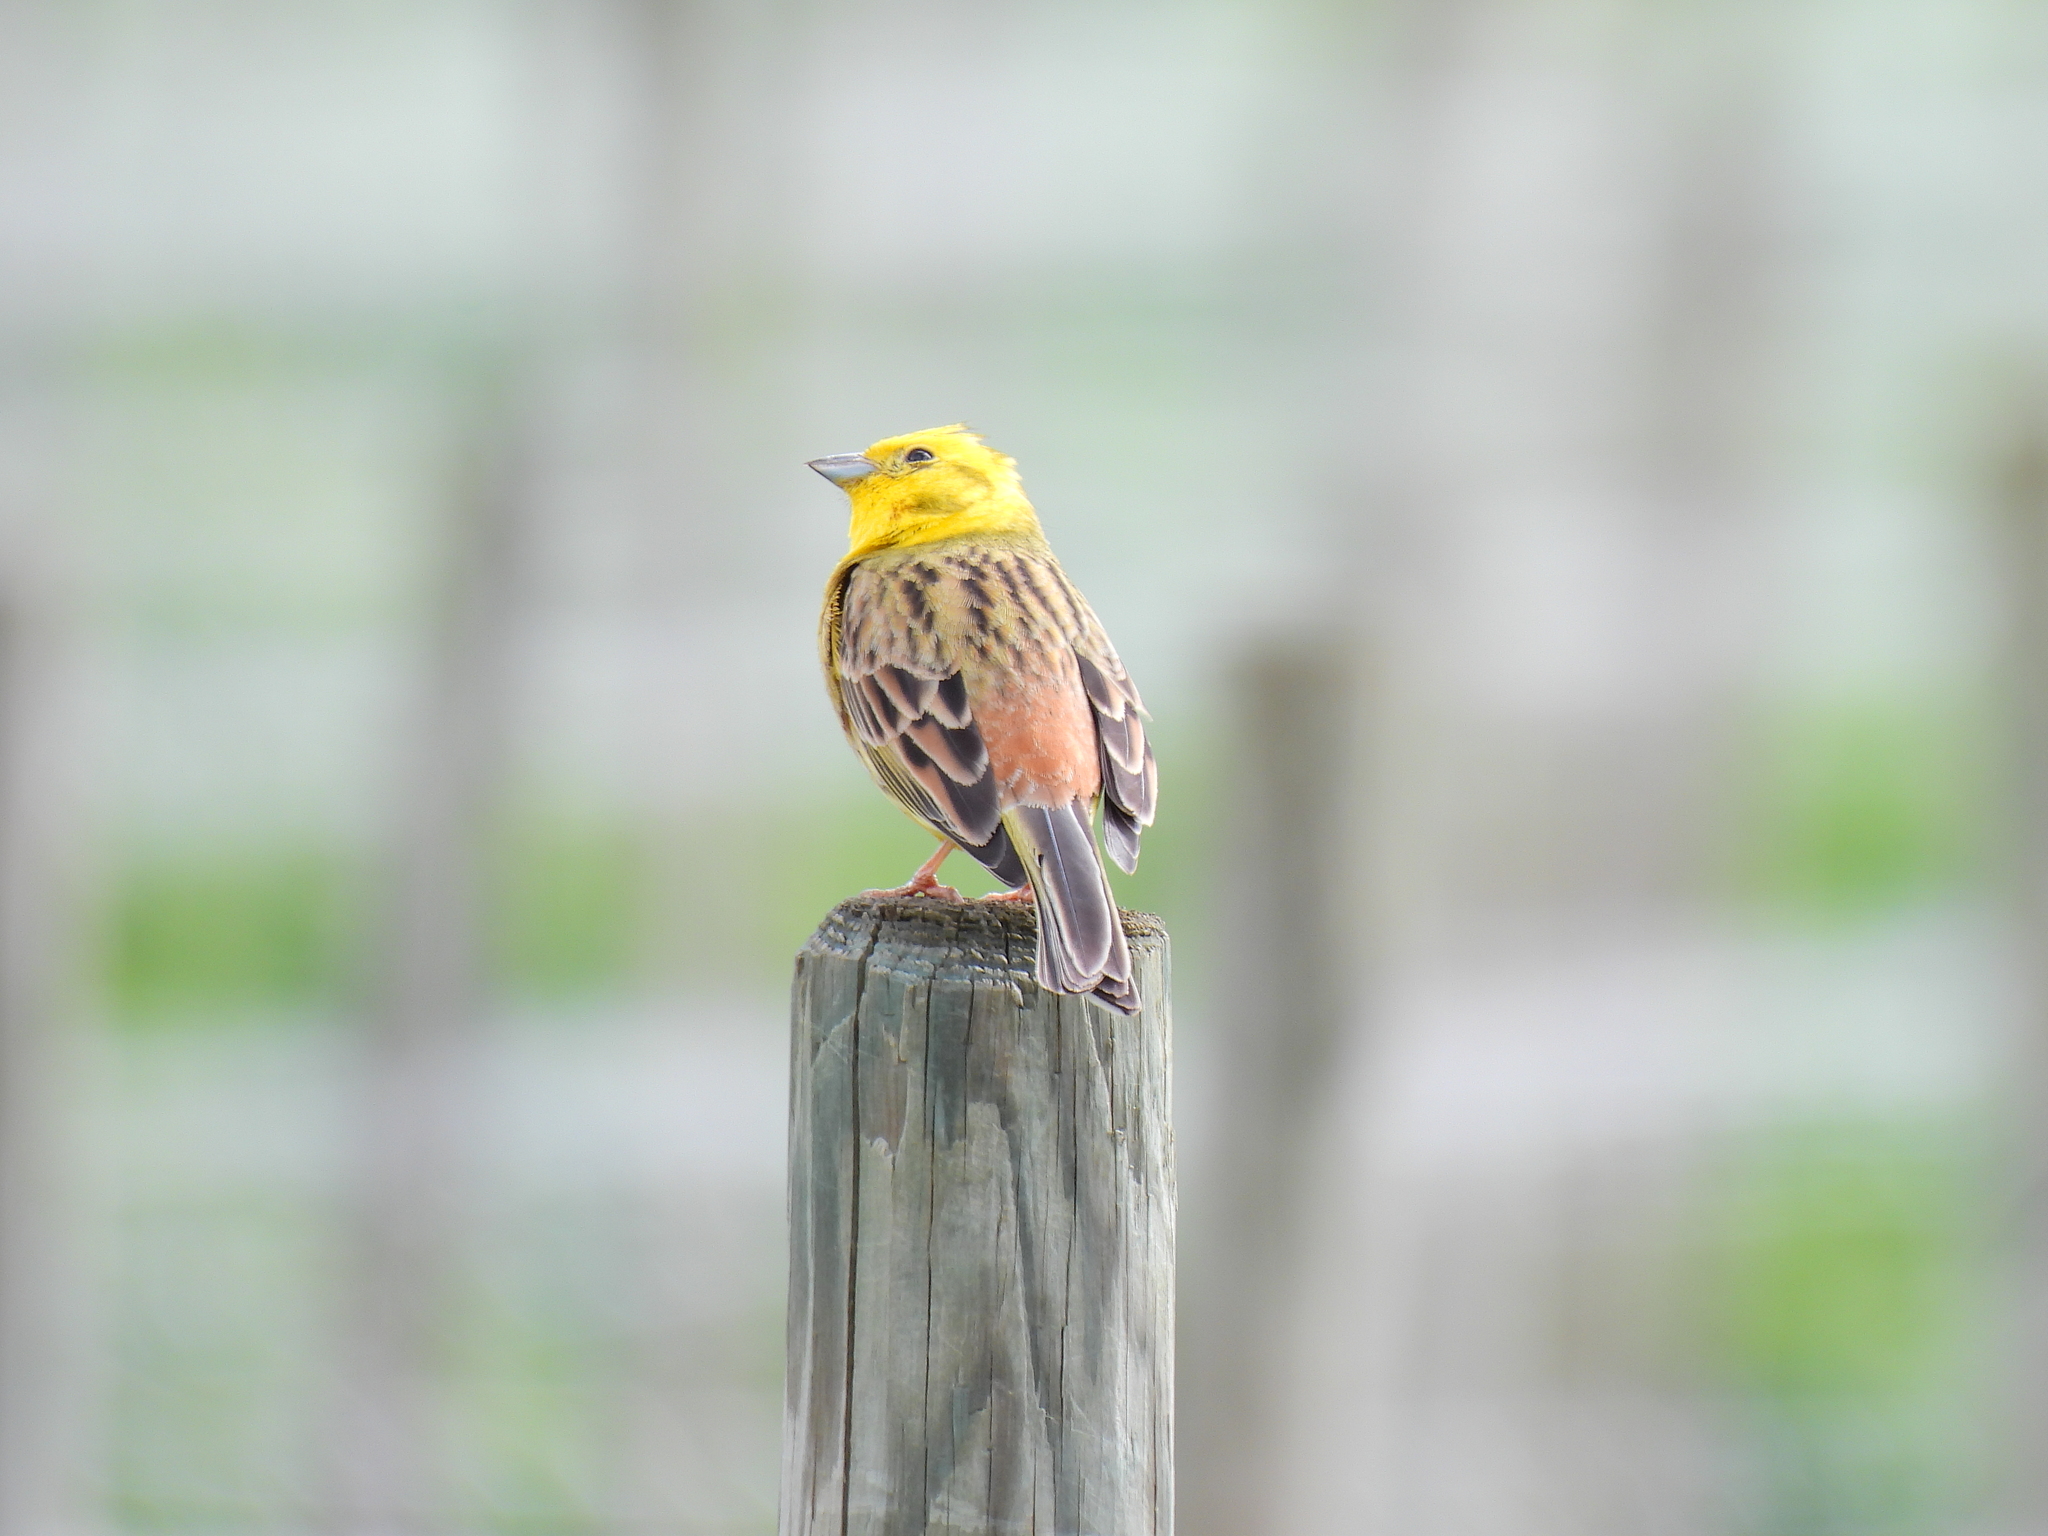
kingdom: Animalia
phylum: Chordata
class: Aves
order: Passeriformes
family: Emberizidae
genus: Emberiza
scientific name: Emberiza citrinella
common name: Yellowhammer
